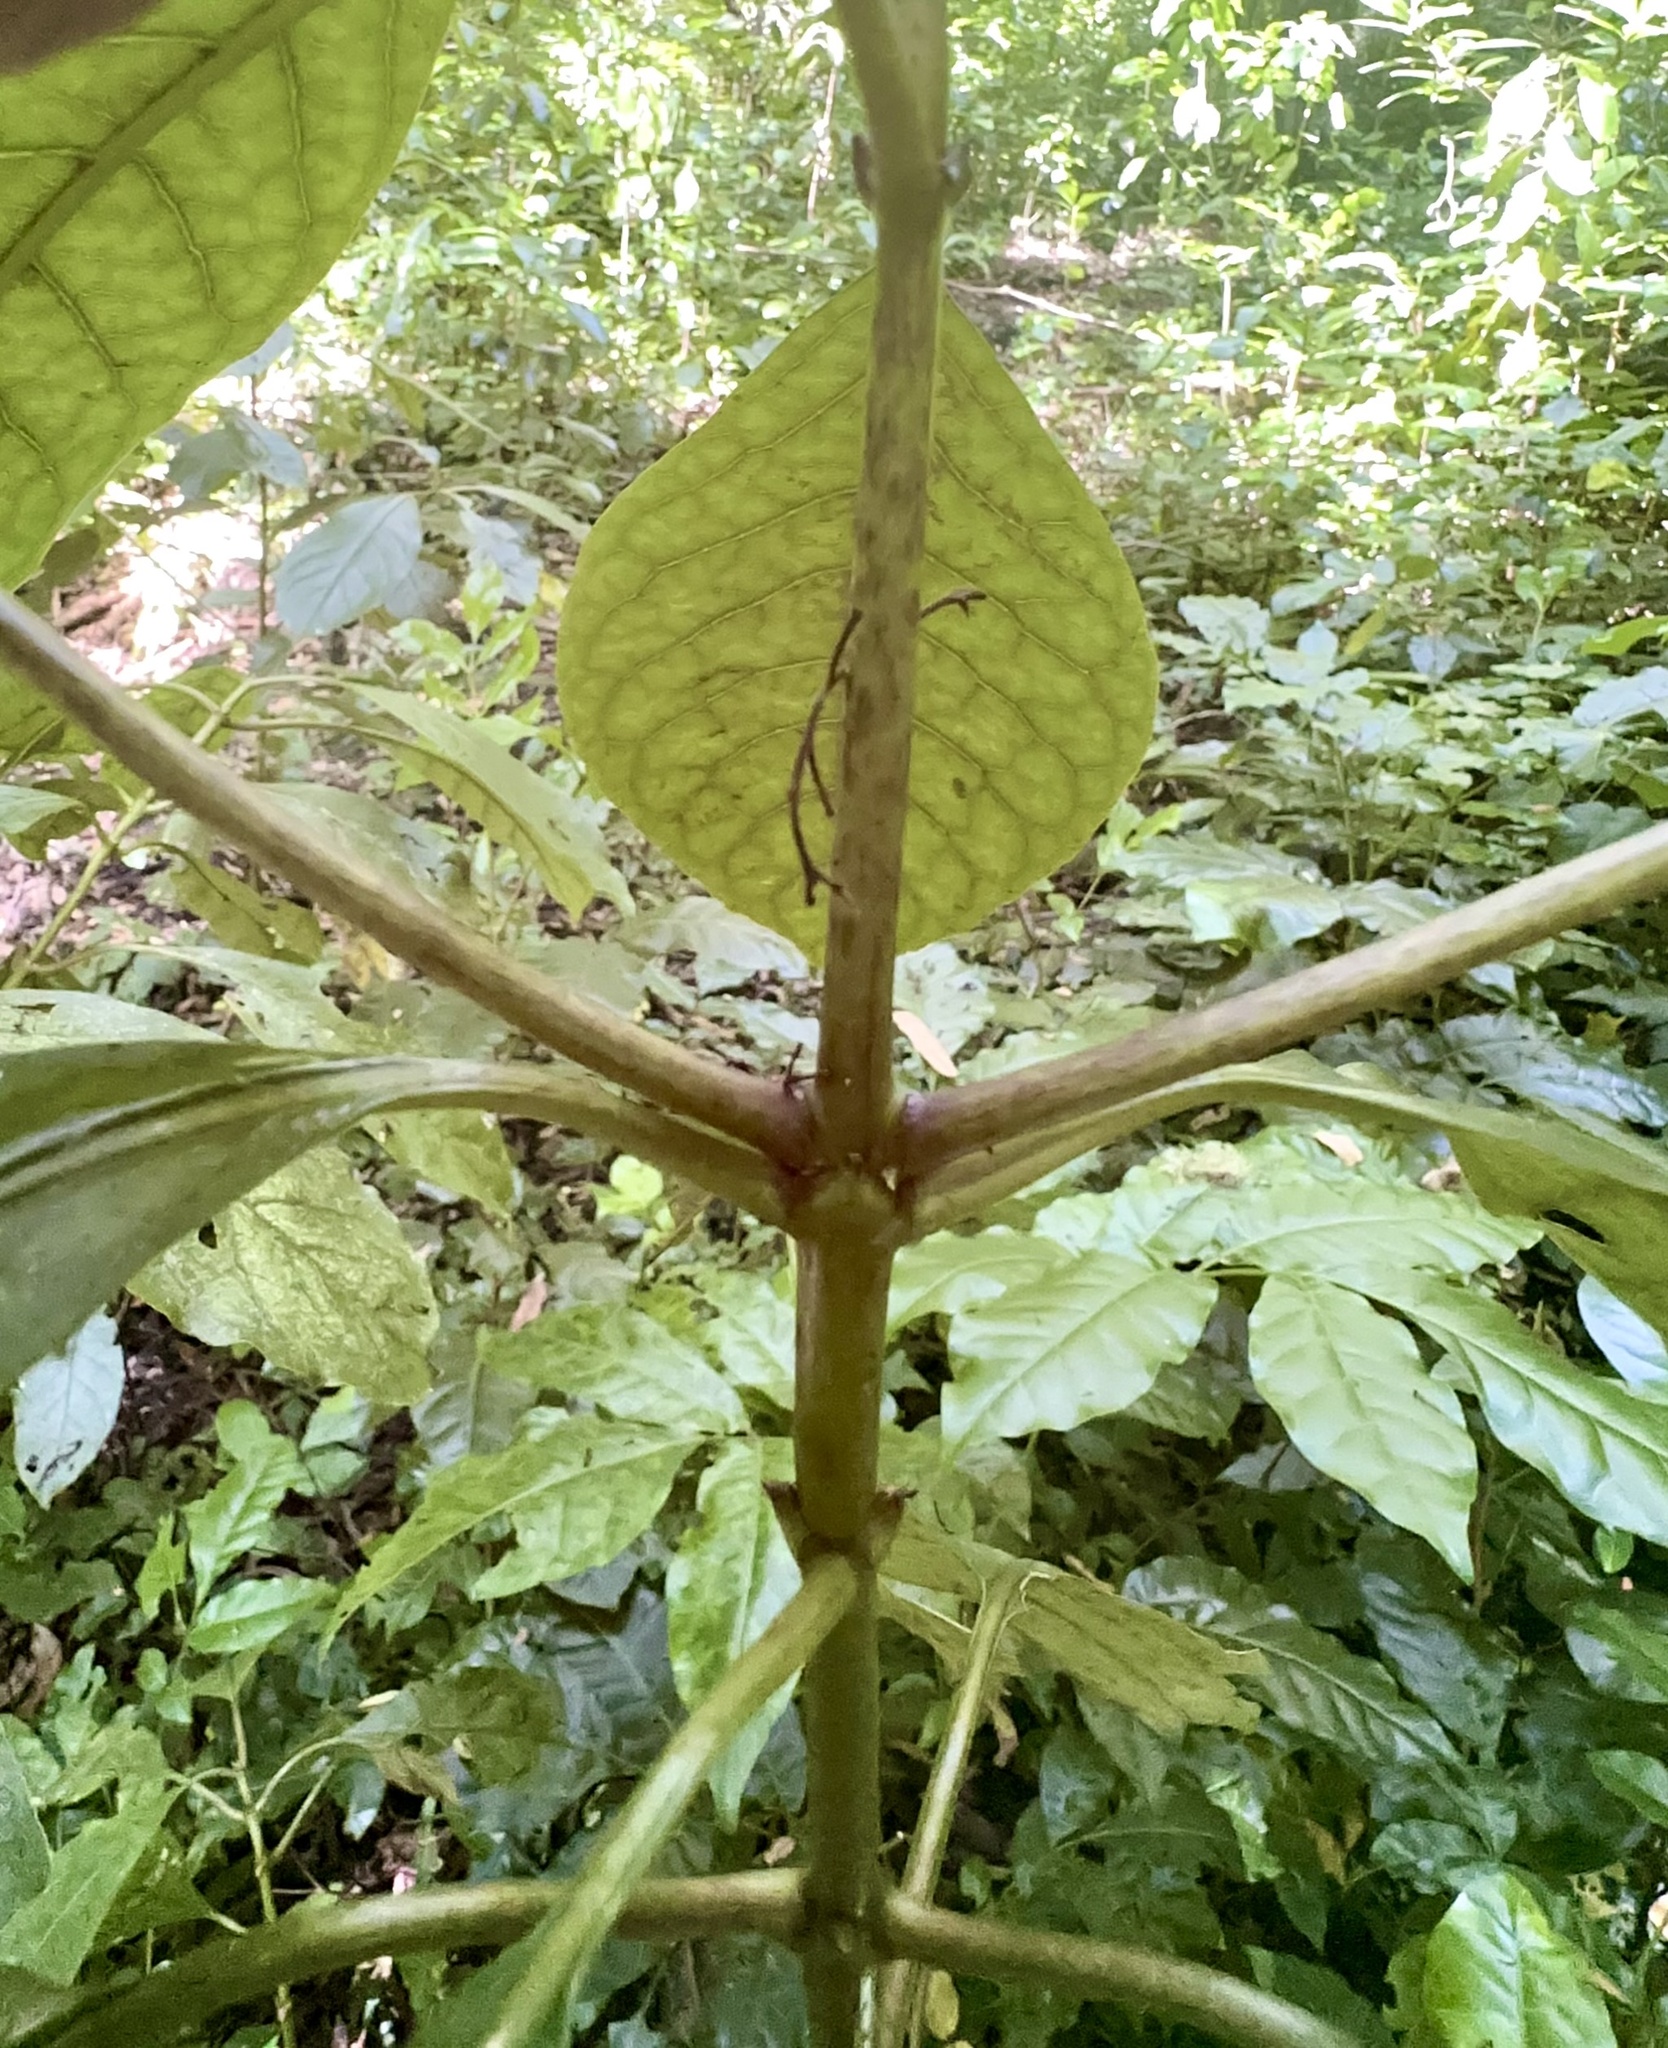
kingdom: Plantae
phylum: Tracheophyta
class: Magnoliopsida
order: Gentianales
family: Rubiaceae
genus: Coprosma
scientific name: Coprosma autumnalis
